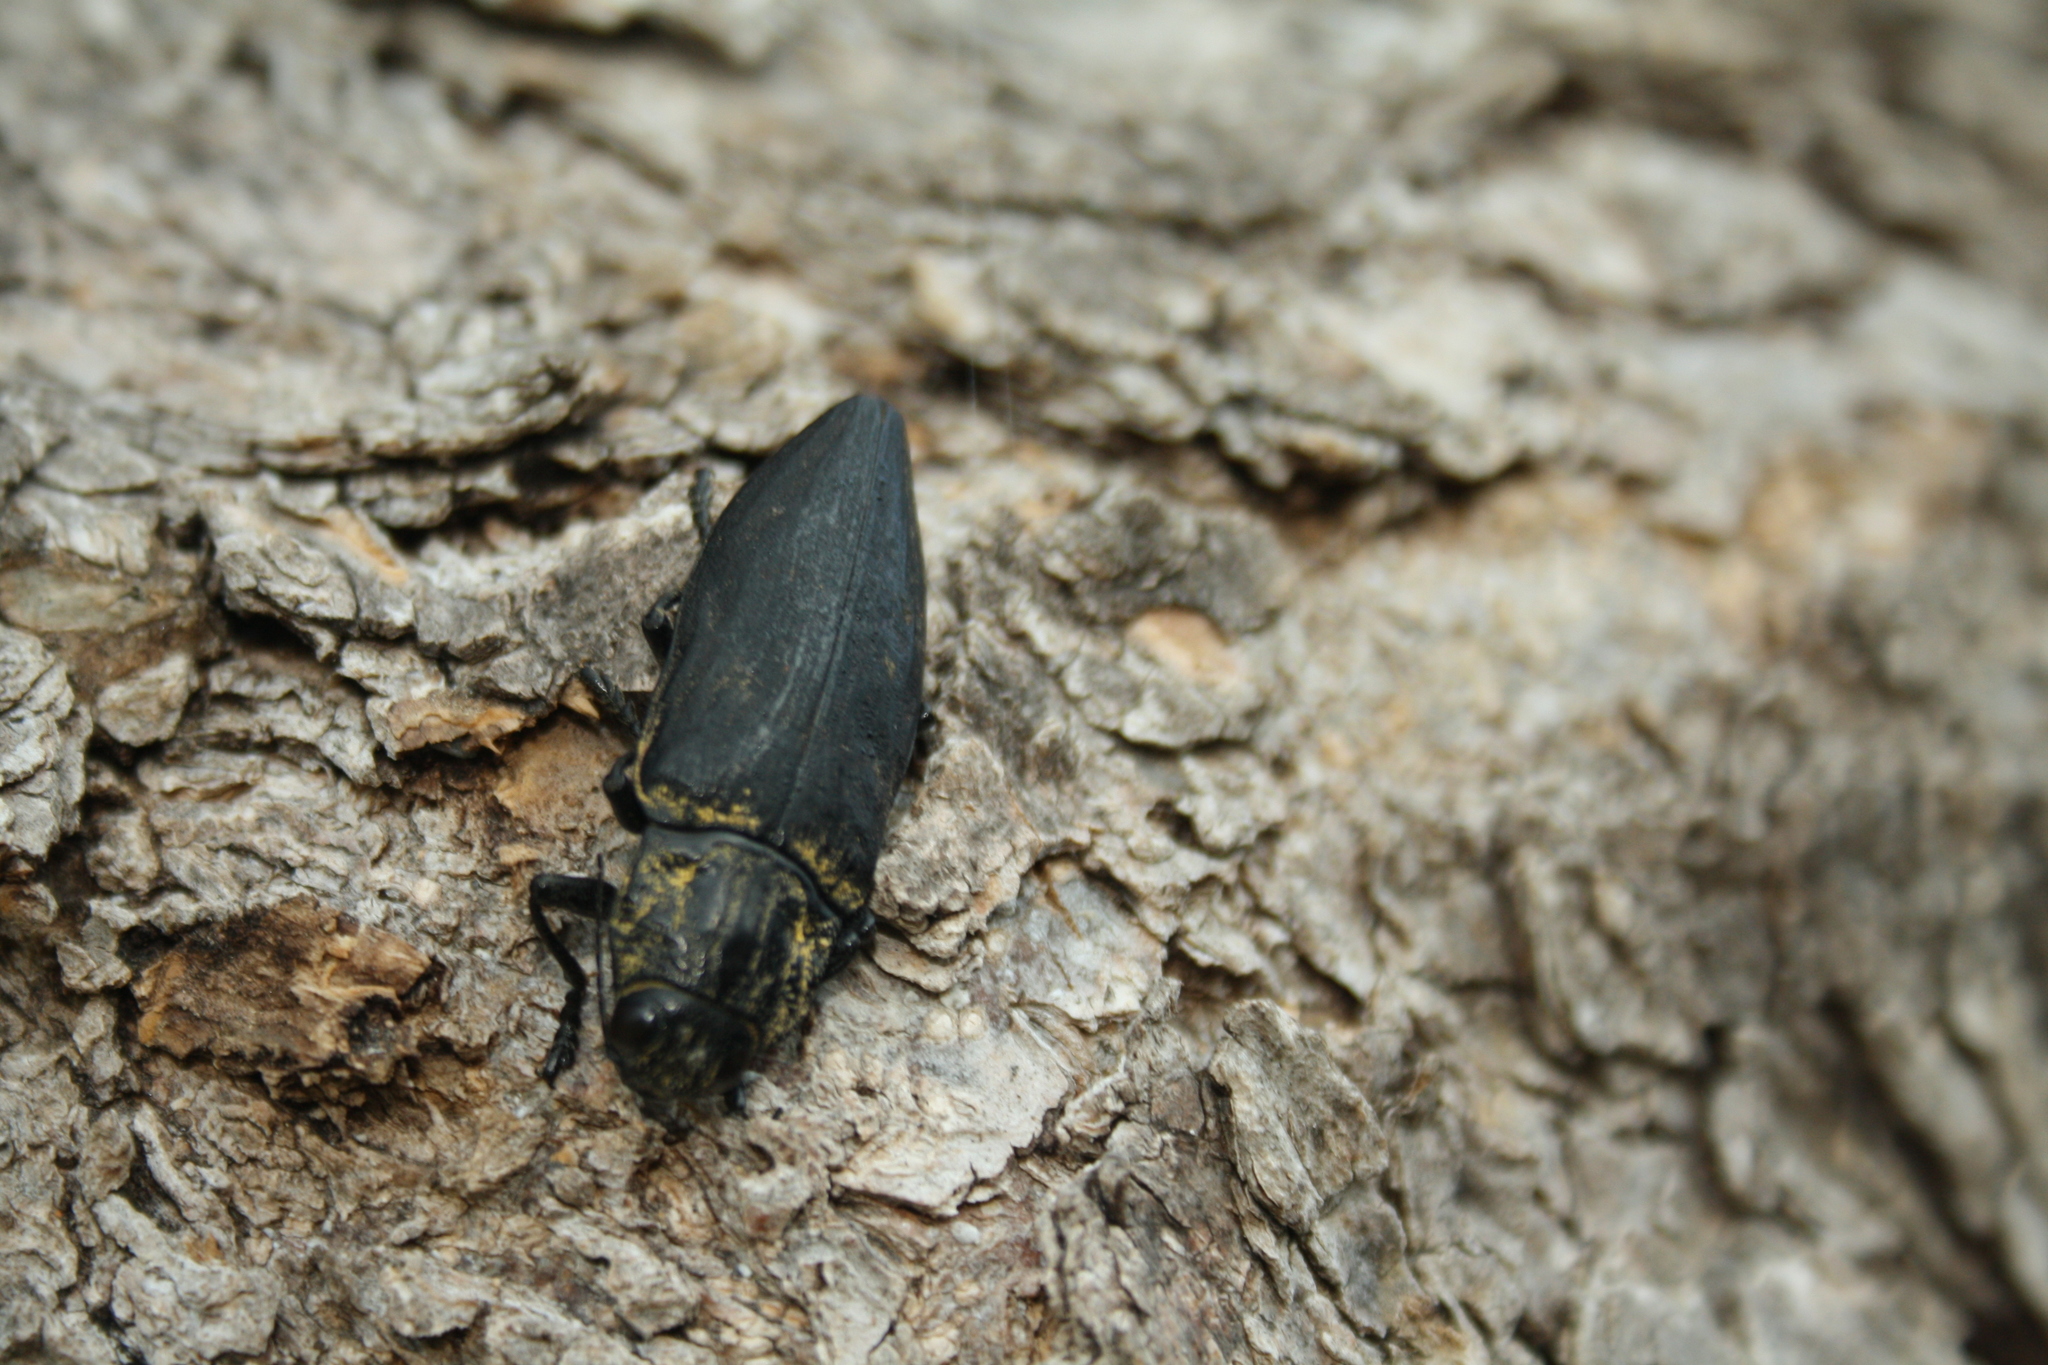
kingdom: Animalia
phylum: Arthropoda
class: Insecta
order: Coleoptera
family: Buprestidae
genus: Chalcophora
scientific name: Chalcophora detrita
